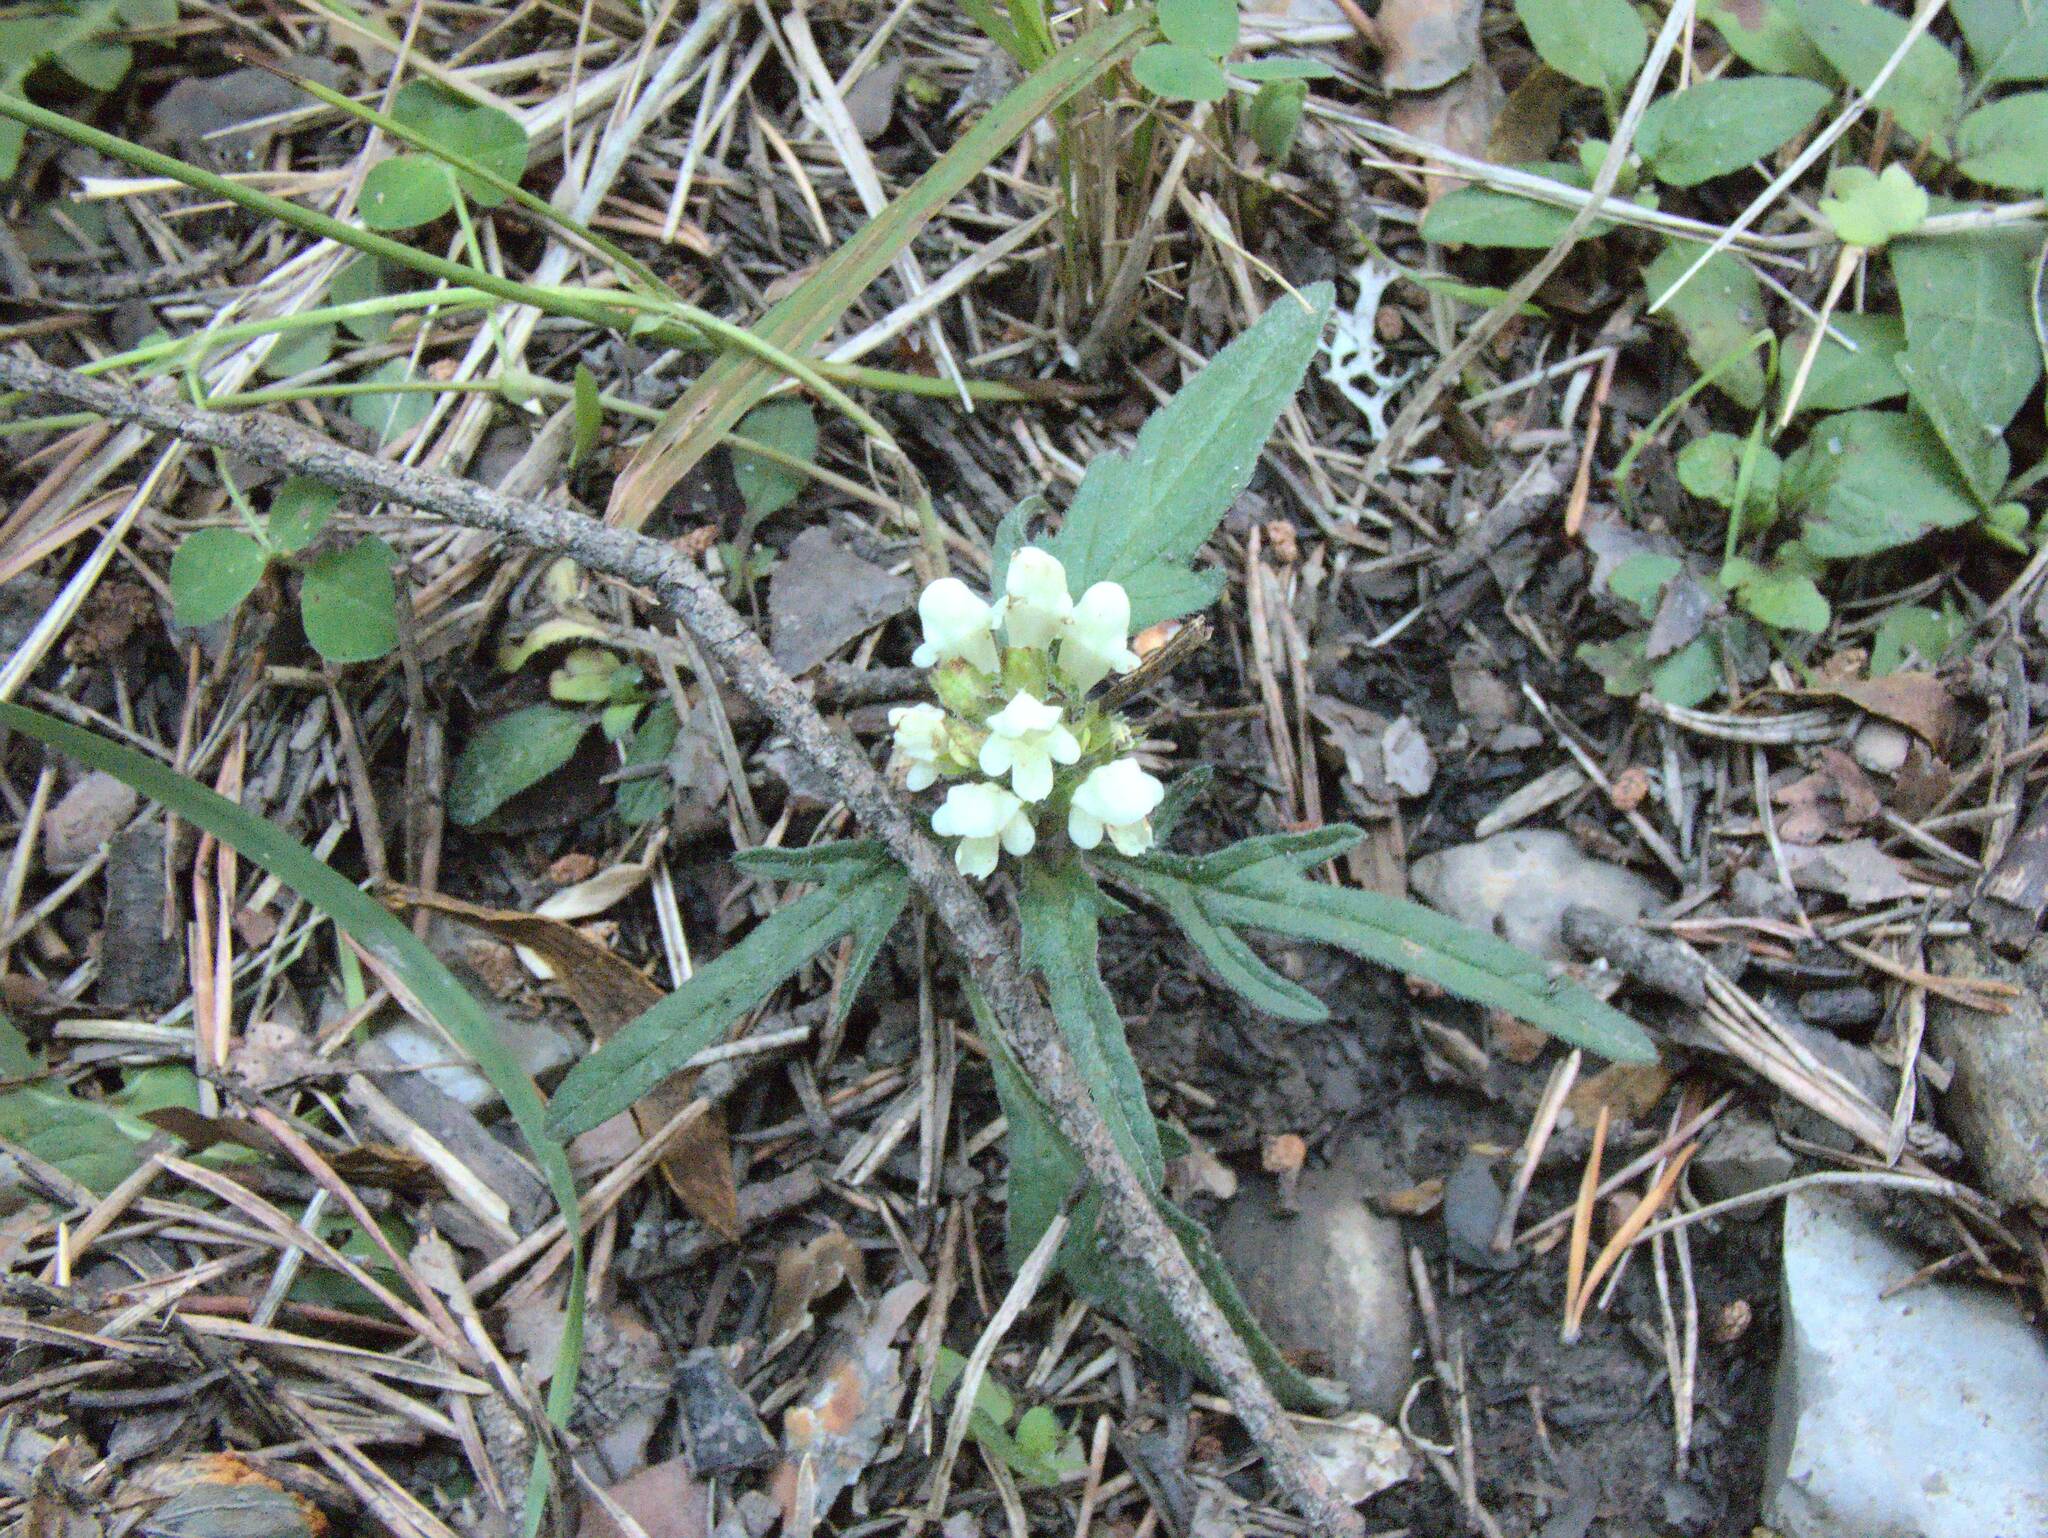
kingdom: Plantae
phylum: Tracheophyta
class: Magnoliopsida
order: Lamiales
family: Lamiaceae
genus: Prunella
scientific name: Prunella laciniata
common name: Cut-leaved selfheal
